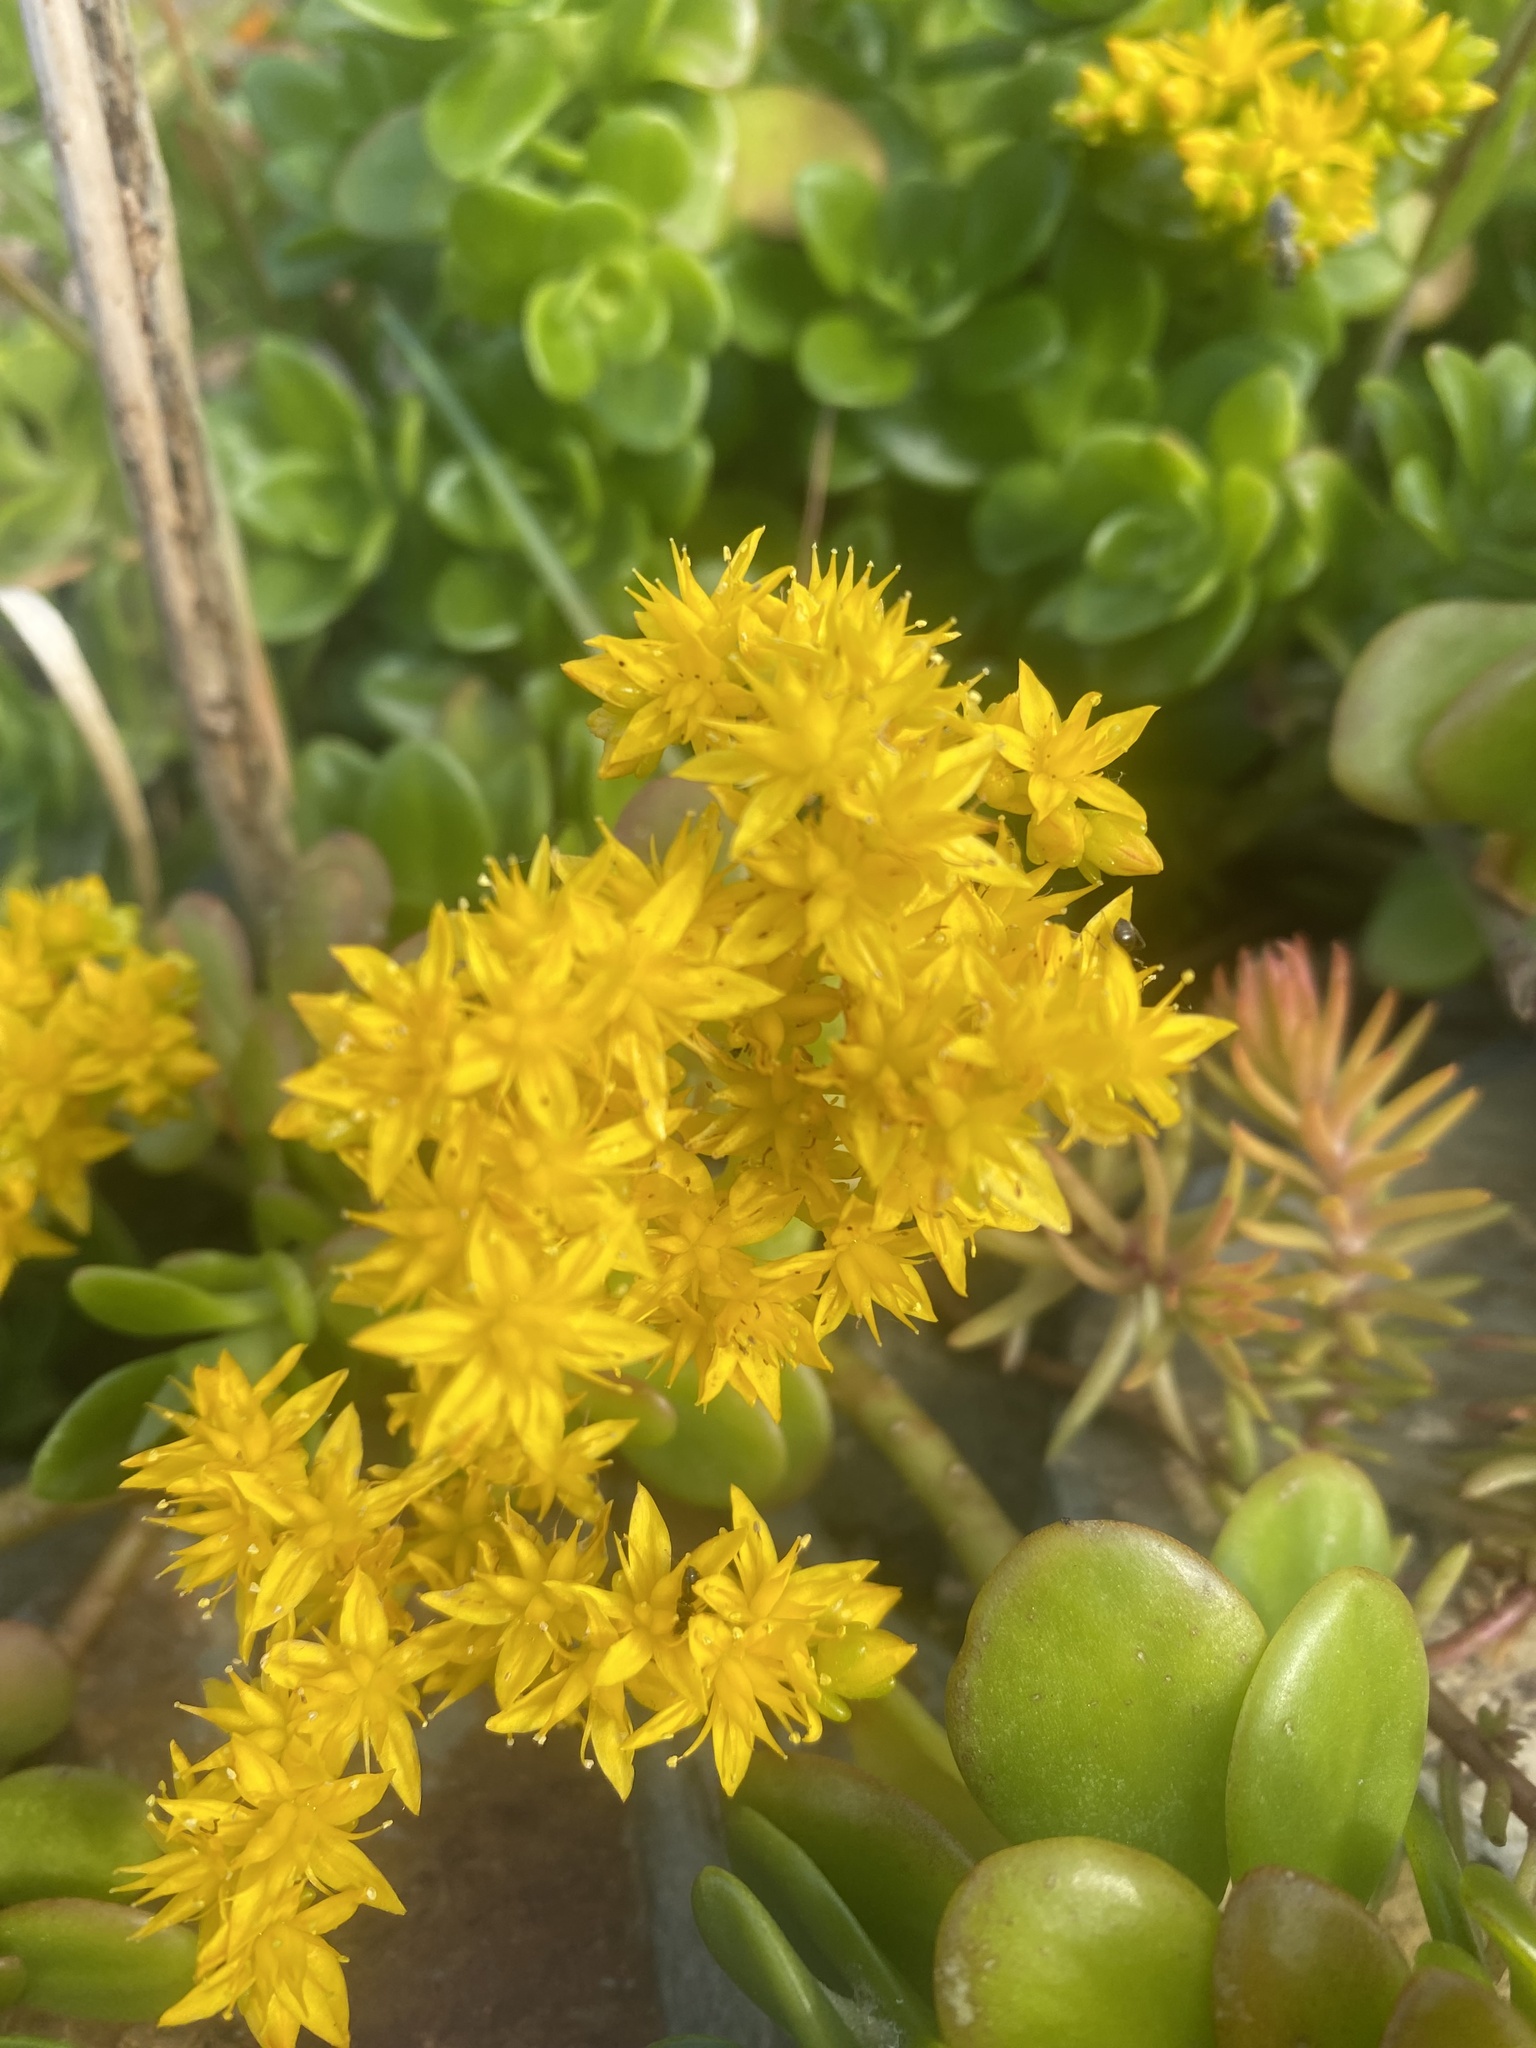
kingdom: Plantae
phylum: Tracheophyta
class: Magnoliopsida
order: Saxifragales
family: Crassulaceae
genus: Sedum
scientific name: Sedum kimnachii
